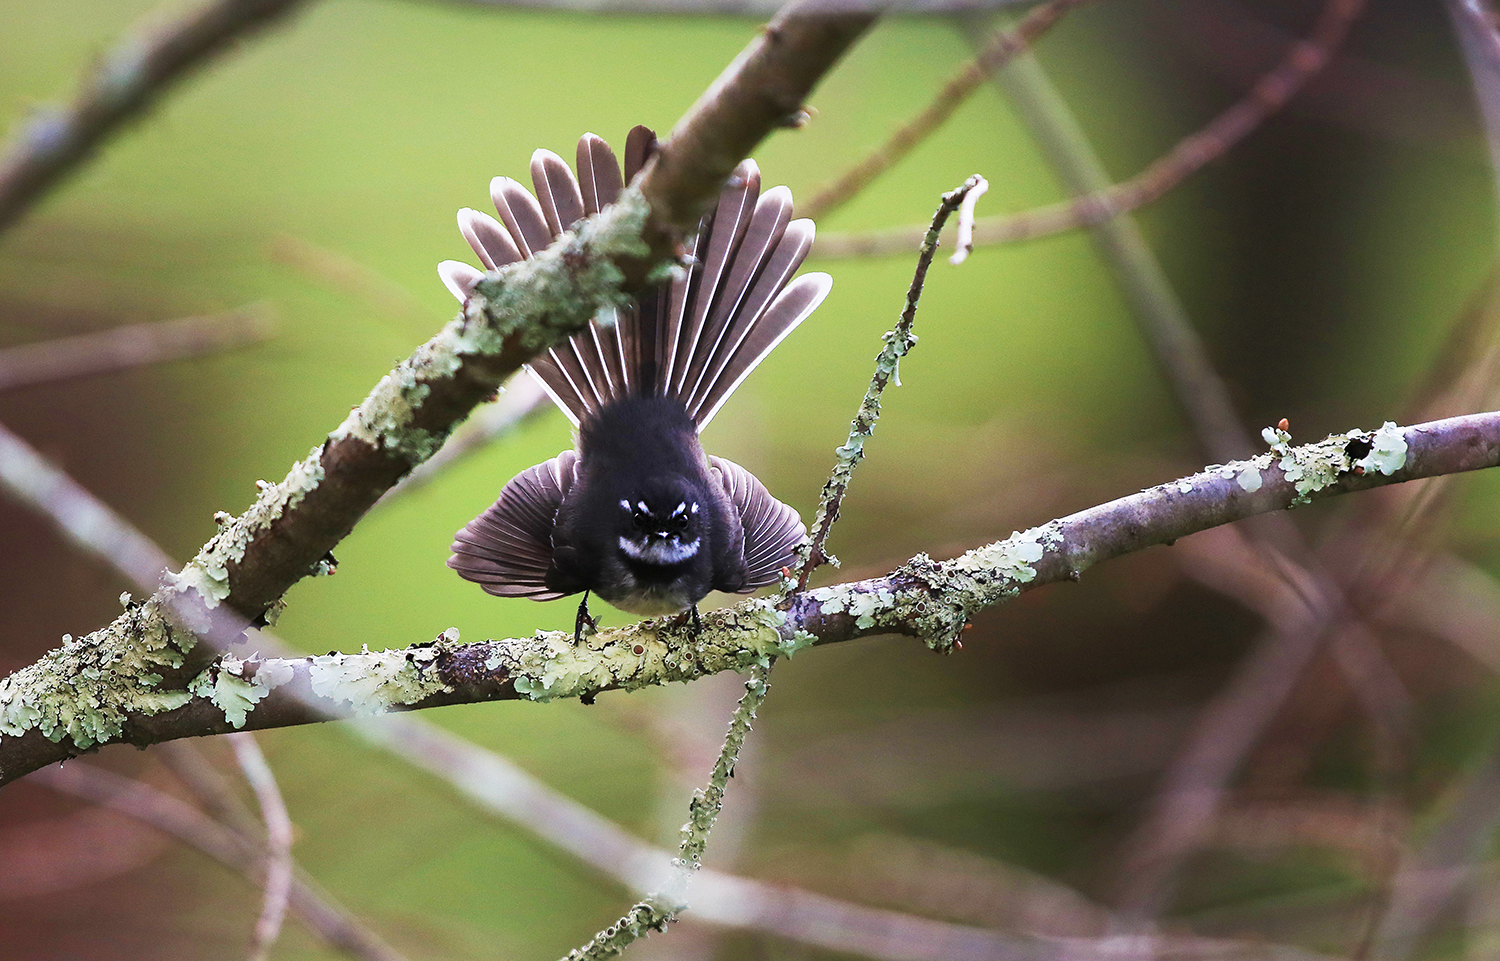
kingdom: Animalia
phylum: Chordata
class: Aves
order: Passeriformes
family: Rhipiduridae
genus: Rhipidura
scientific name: Rhipidura albiscapa
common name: Grey fantail
